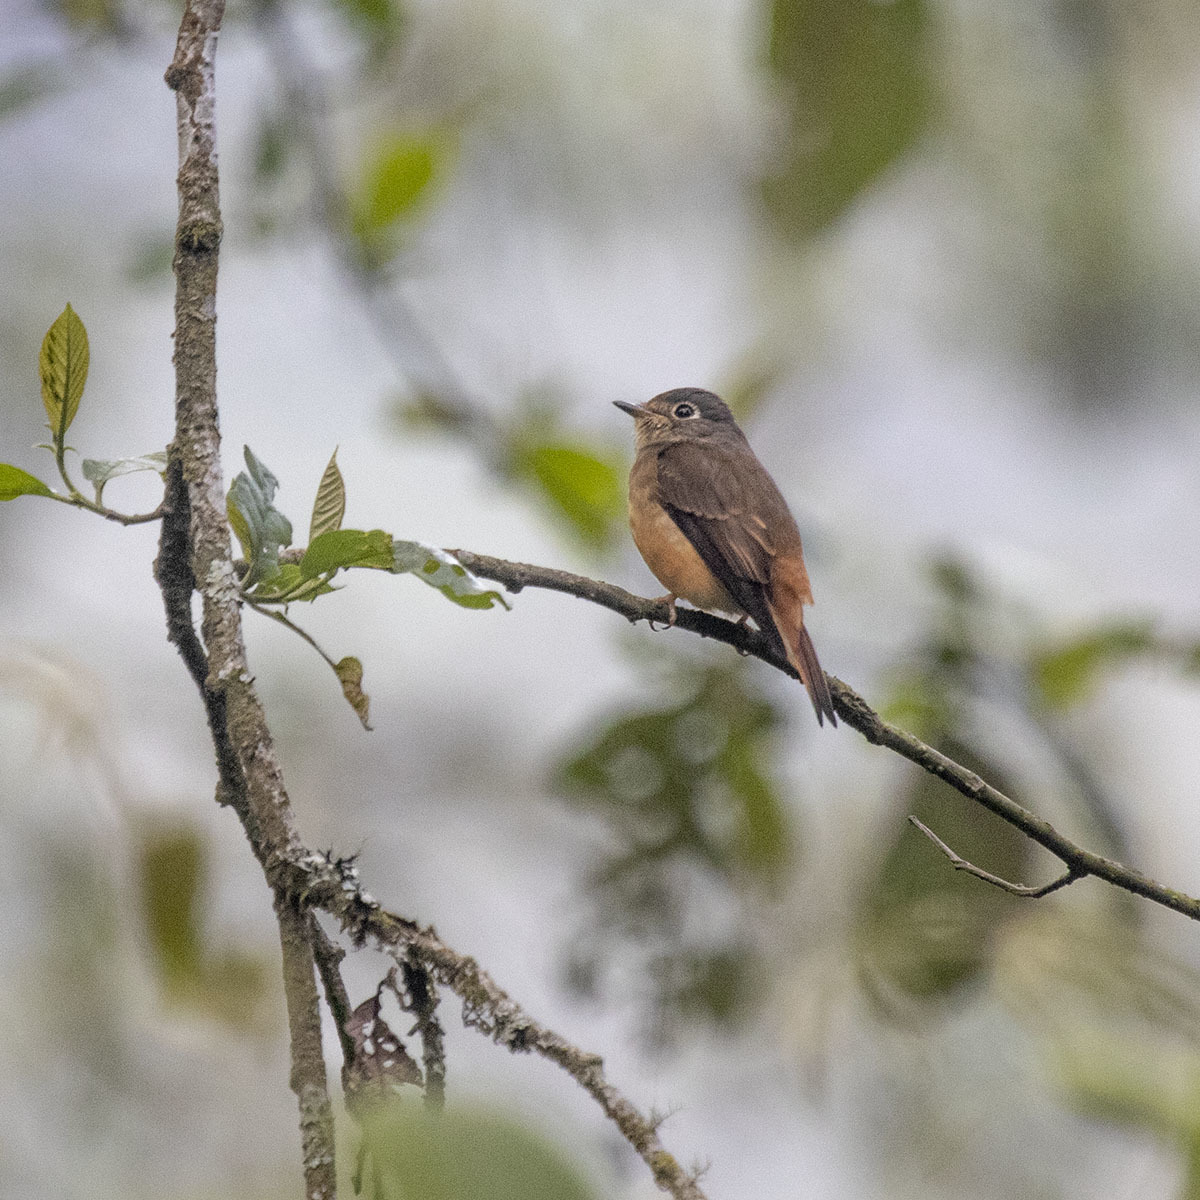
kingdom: Animalia
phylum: Chordata
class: Aves
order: Passeriformes
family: Muscicapidae
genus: Muscicapa
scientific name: Muscicapa ferruginea
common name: Ferruginous flycatcher
